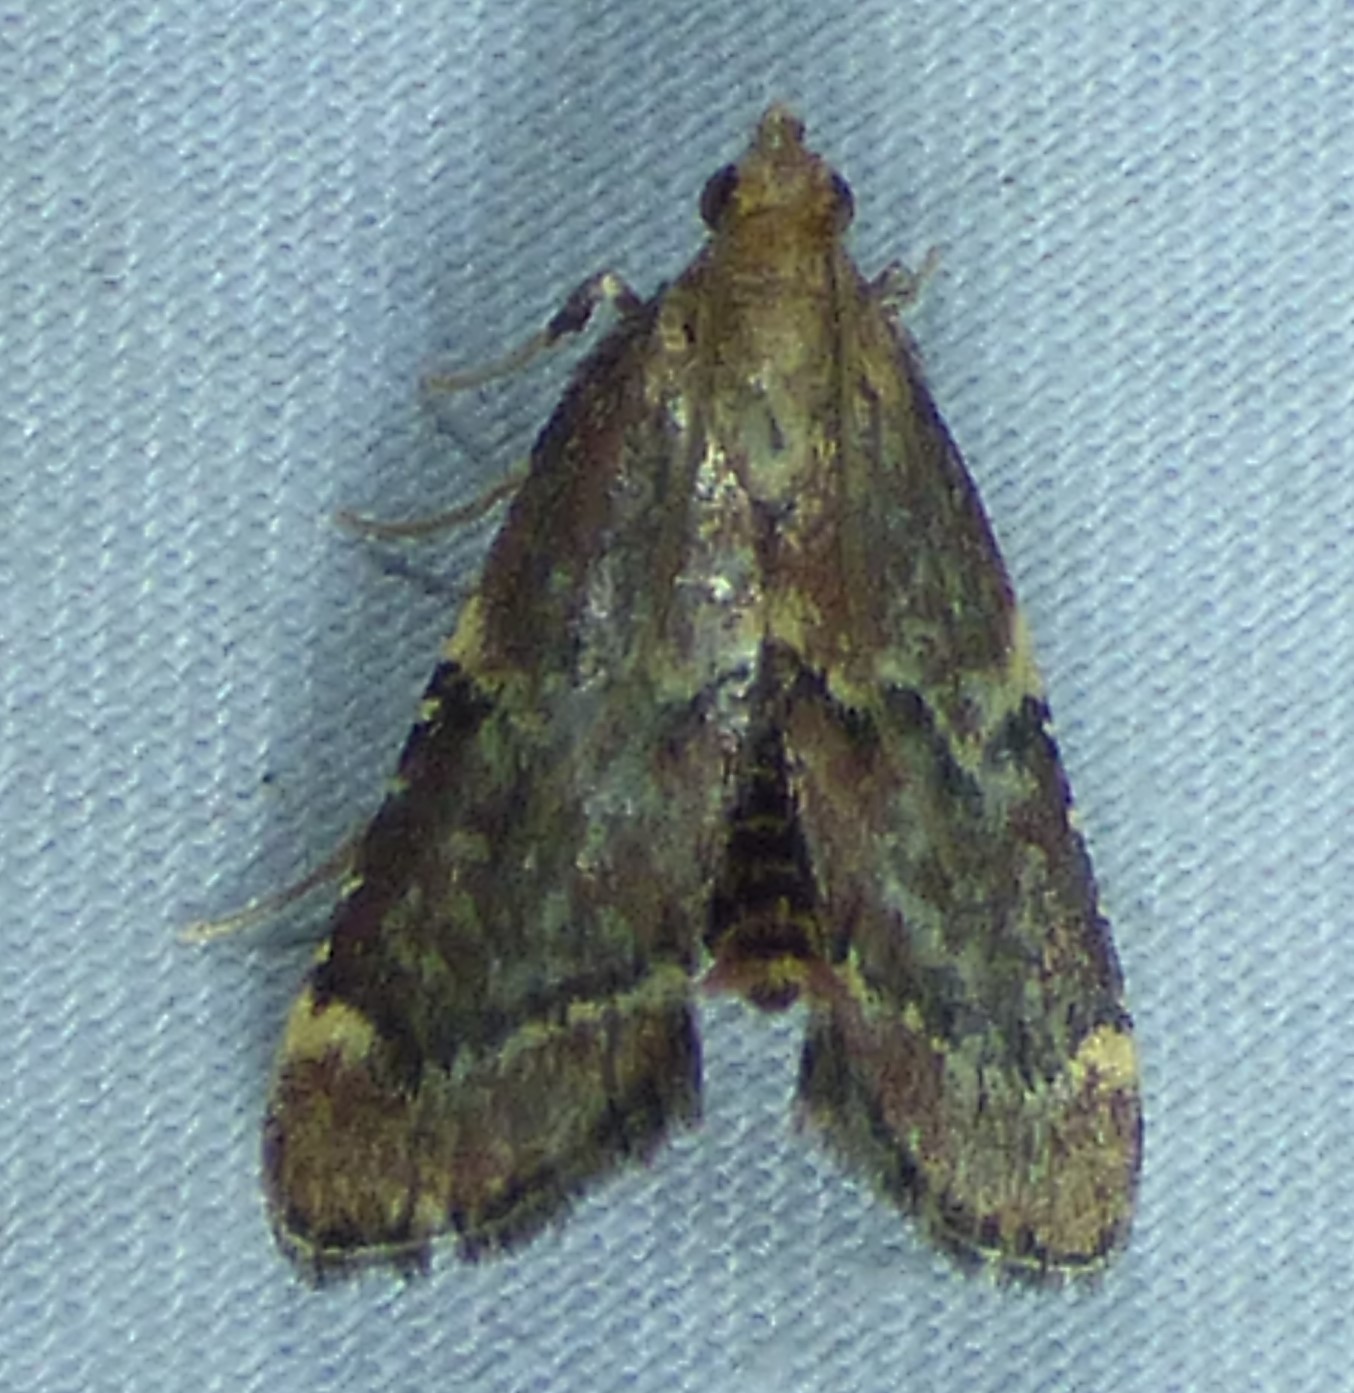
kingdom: Animalia
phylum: Arthropoda
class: Insecta
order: Lepidoptera
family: Pyralidae
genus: Hypsopygia
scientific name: Hypsopygia intermedialis
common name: Red-shawled moth
